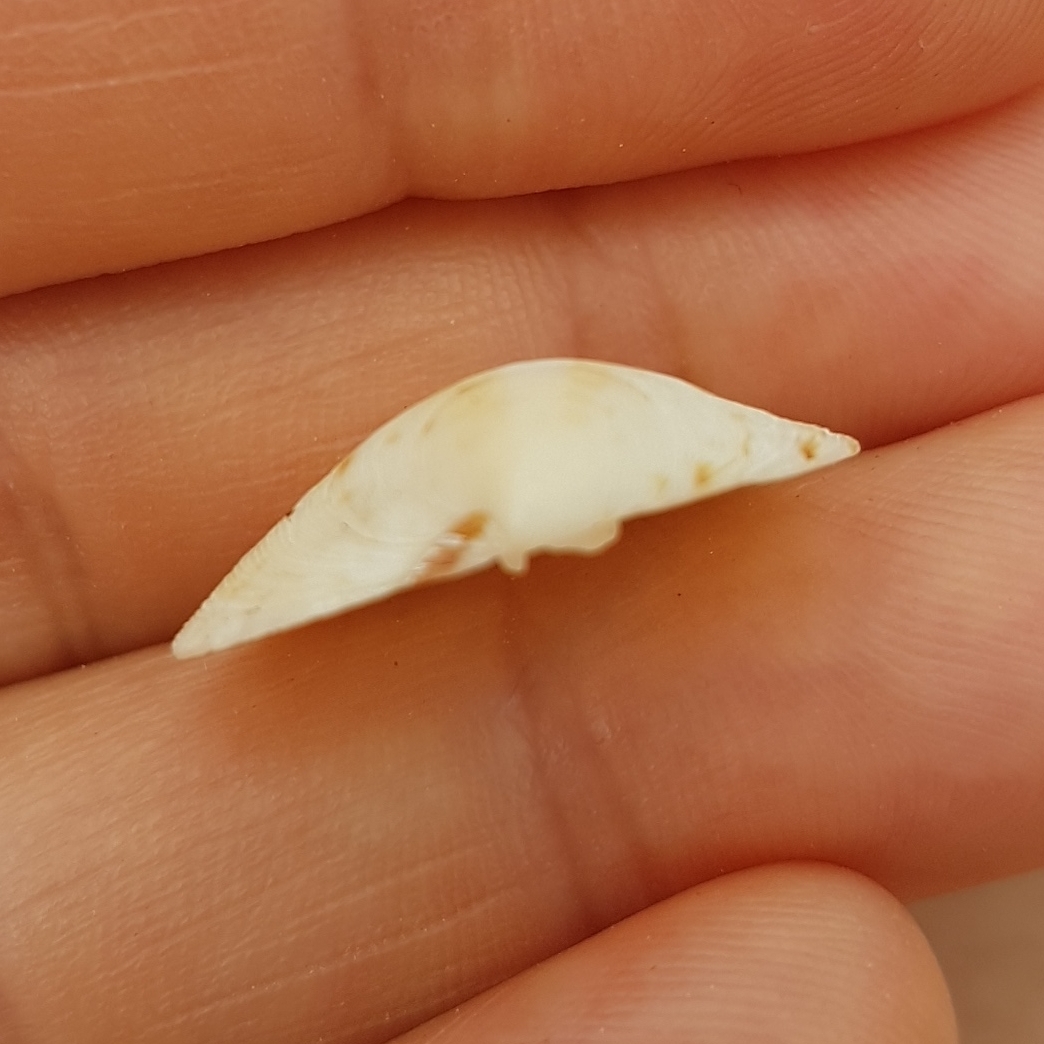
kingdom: Animalia
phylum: Mollusca
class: Bivalvia
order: Venerida
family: Veneridae
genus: Dosinia
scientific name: Dosinia exoleta
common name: Rayed artemis
